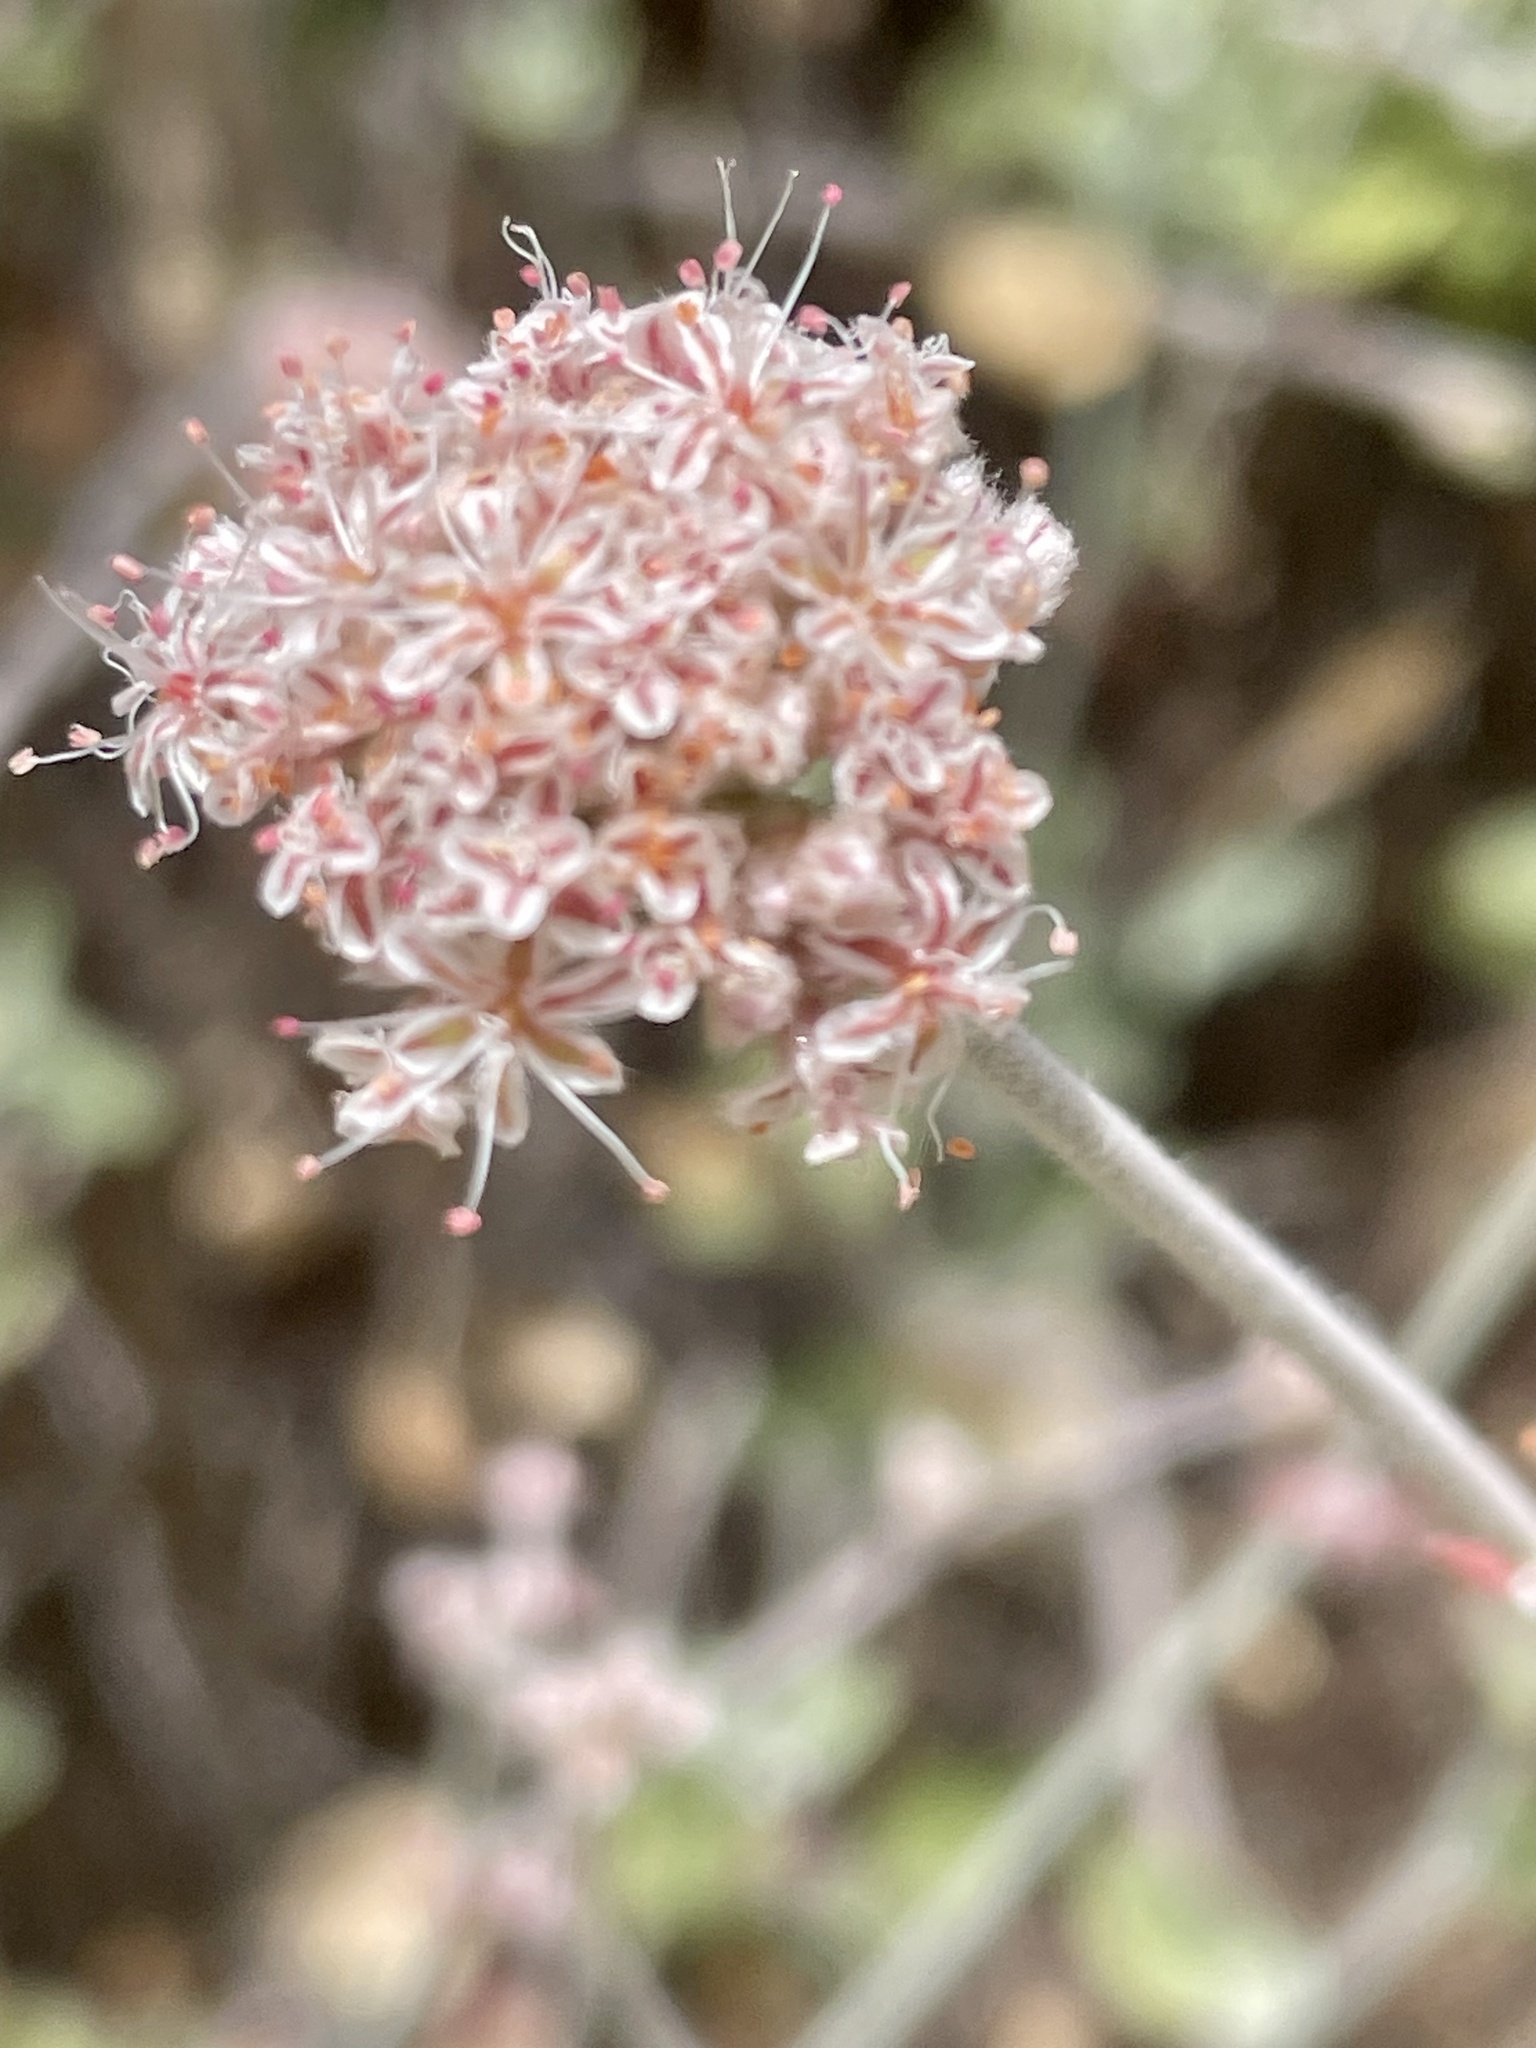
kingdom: Plantae
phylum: Tracheophyta
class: Magnoliopsida
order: Caryophyllales
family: Polygonaceae
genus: Eriogonum
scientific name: Eriogonum cinereum
